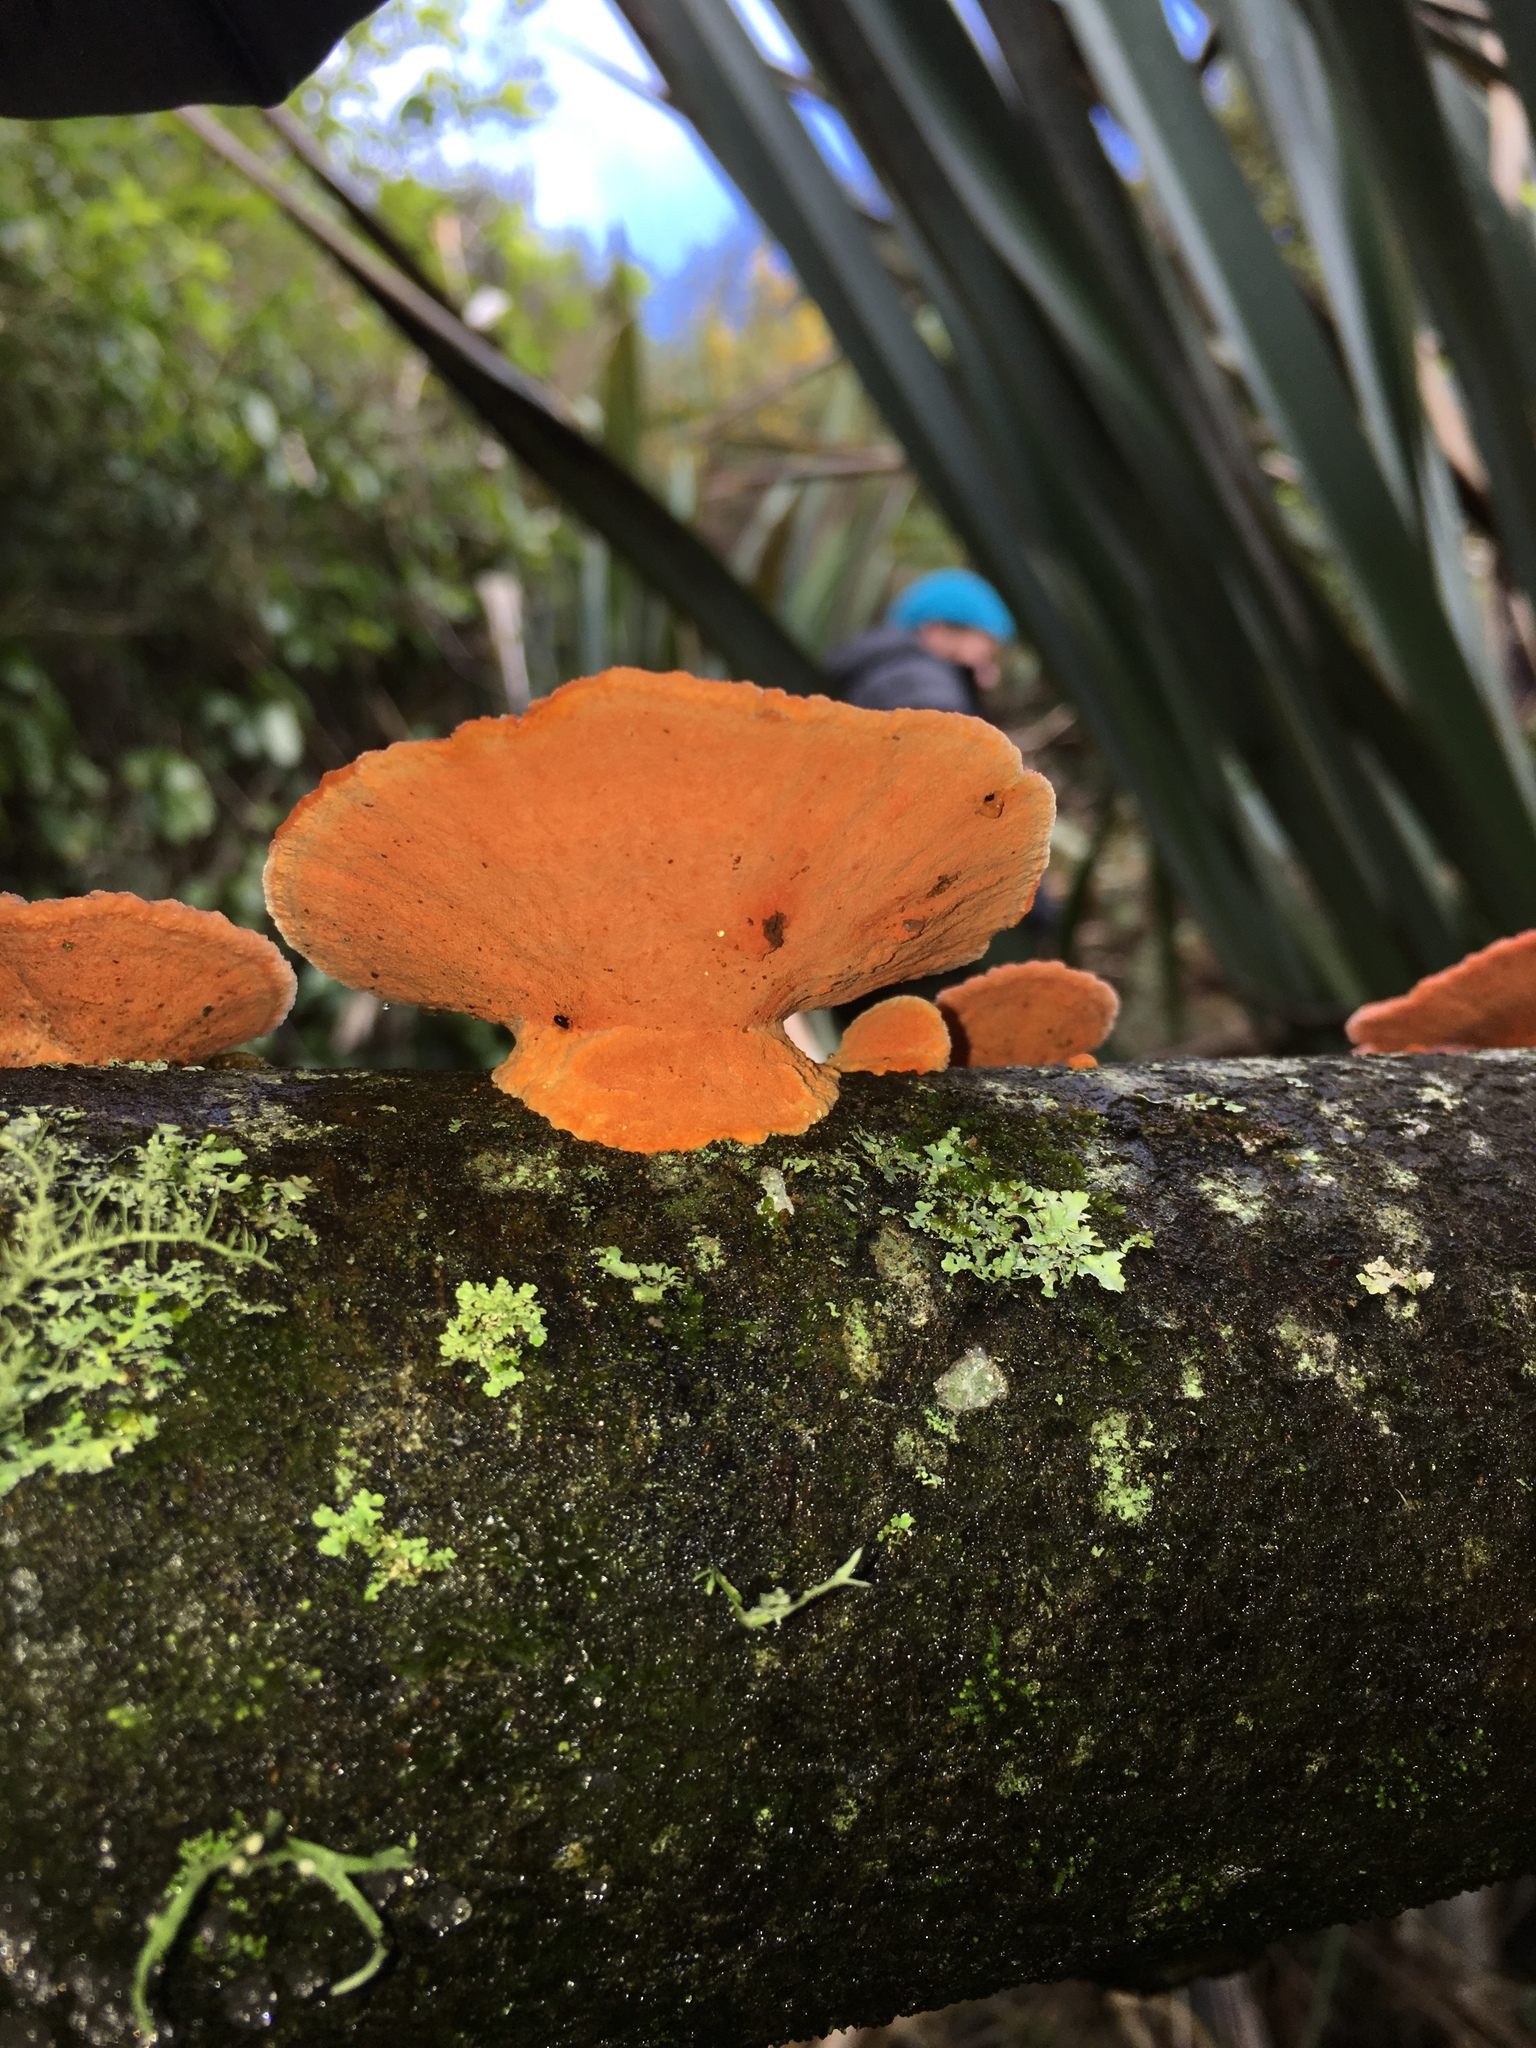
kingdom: Fungi
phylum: Basidiomycota
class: Agaricomycetes
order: Polyporales
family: Polyporaceae
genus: Trametes
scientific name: Trametes coccinea
